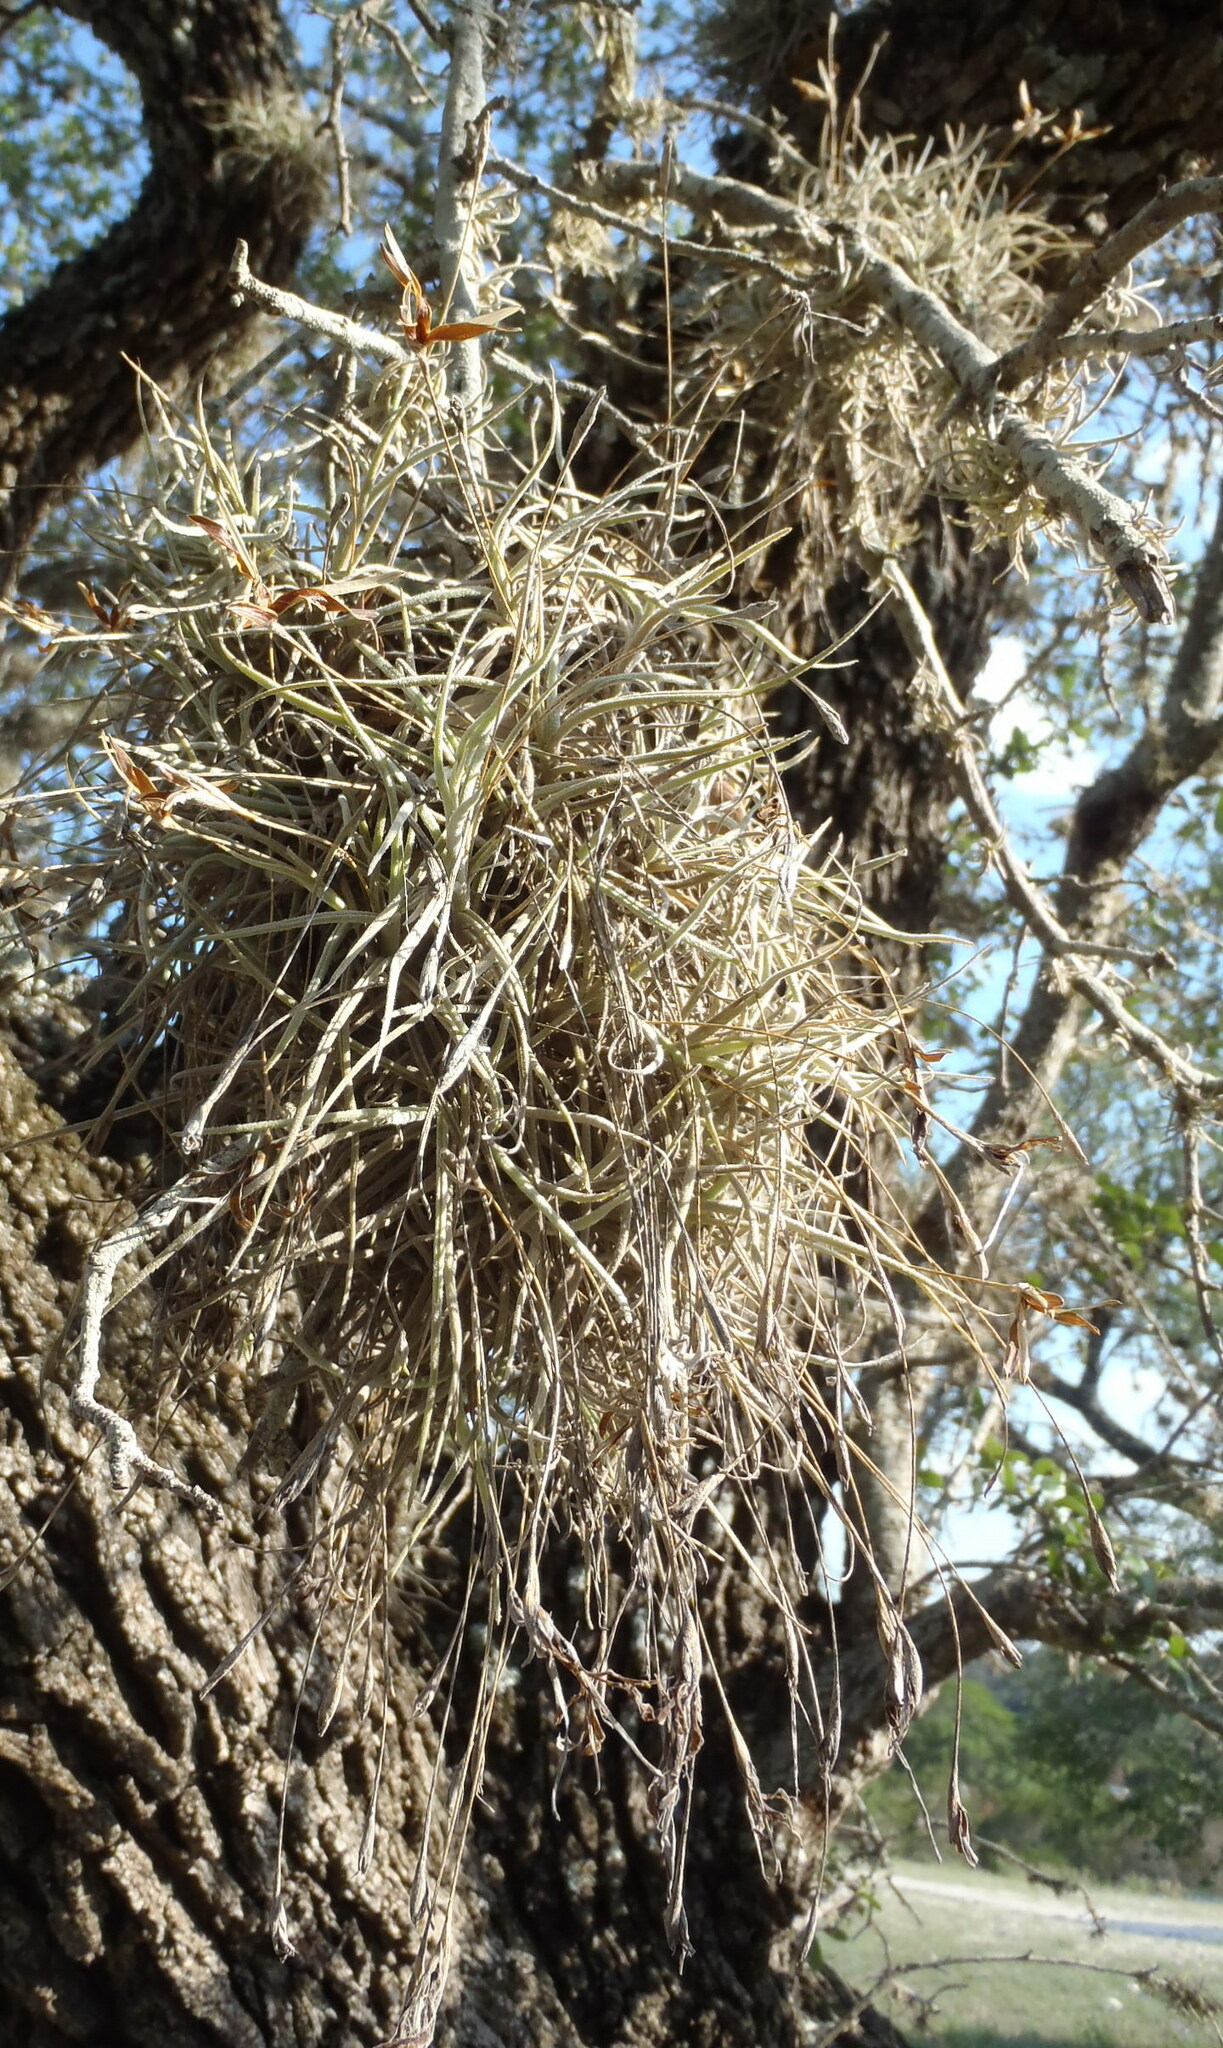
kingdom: Plantae
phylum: Tracheophyta
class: Liliopsida
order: Poales
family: Bromeliaceae
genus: Tillandsia
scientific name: Tillandsia recurvata
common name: Small ballmoss
